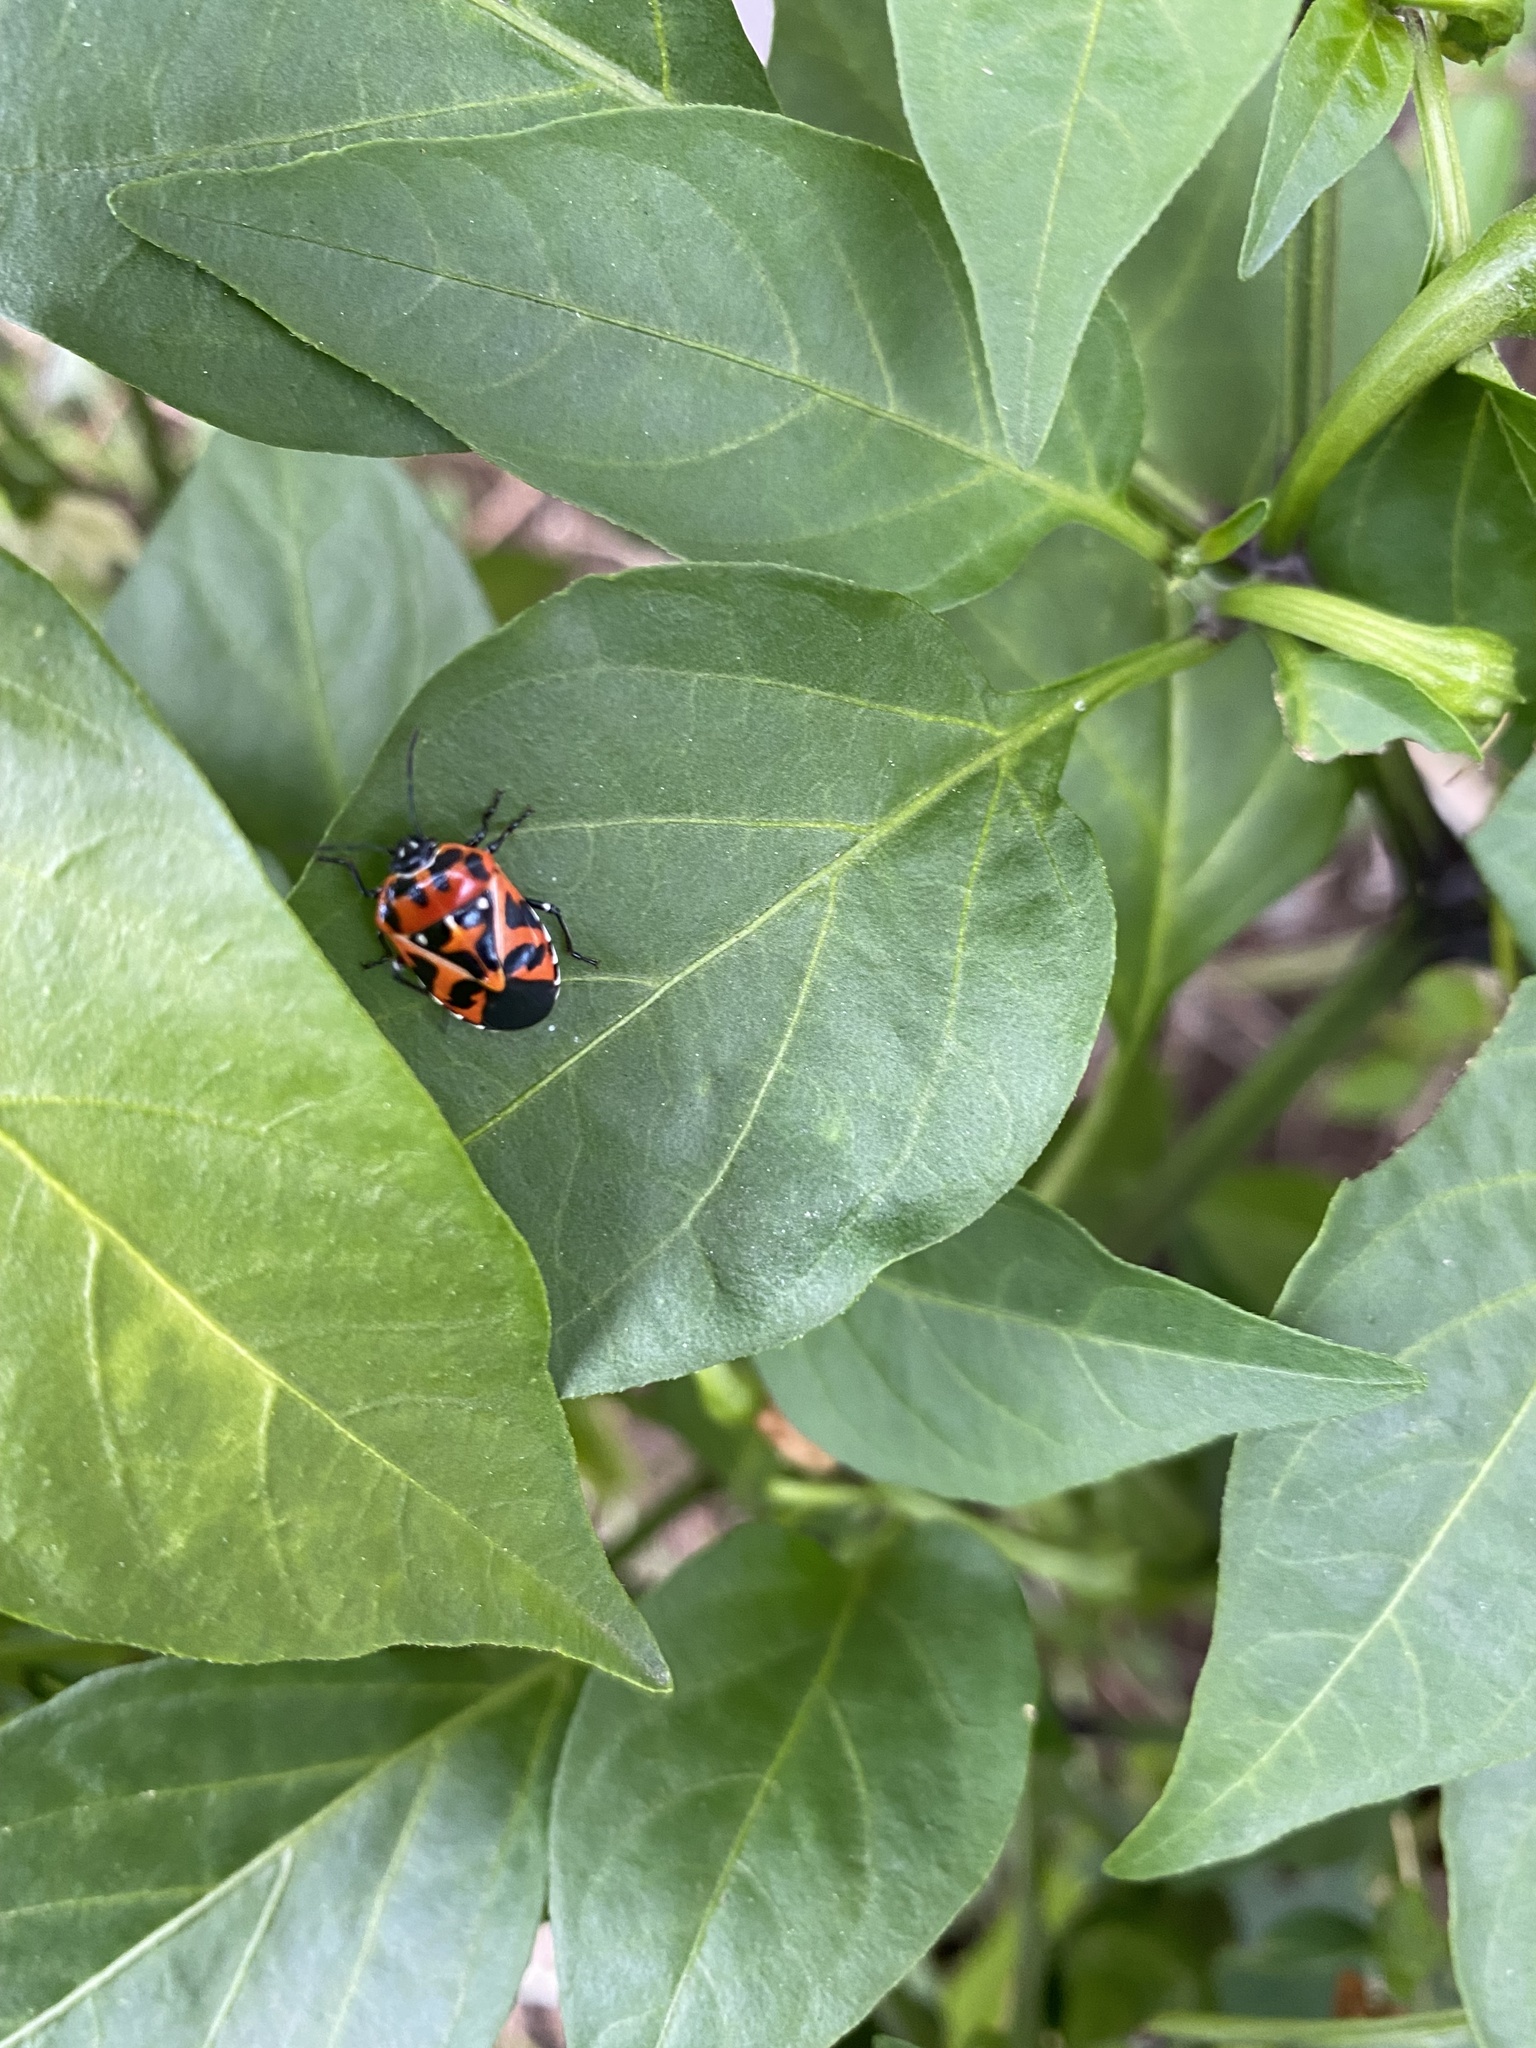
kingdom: Animalia
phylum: Arthropoda
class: Insecta
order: Hemiptera
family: Pentatomidae
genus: Murgantia
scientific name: Murgantia histrionica
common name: Harlequin bug
